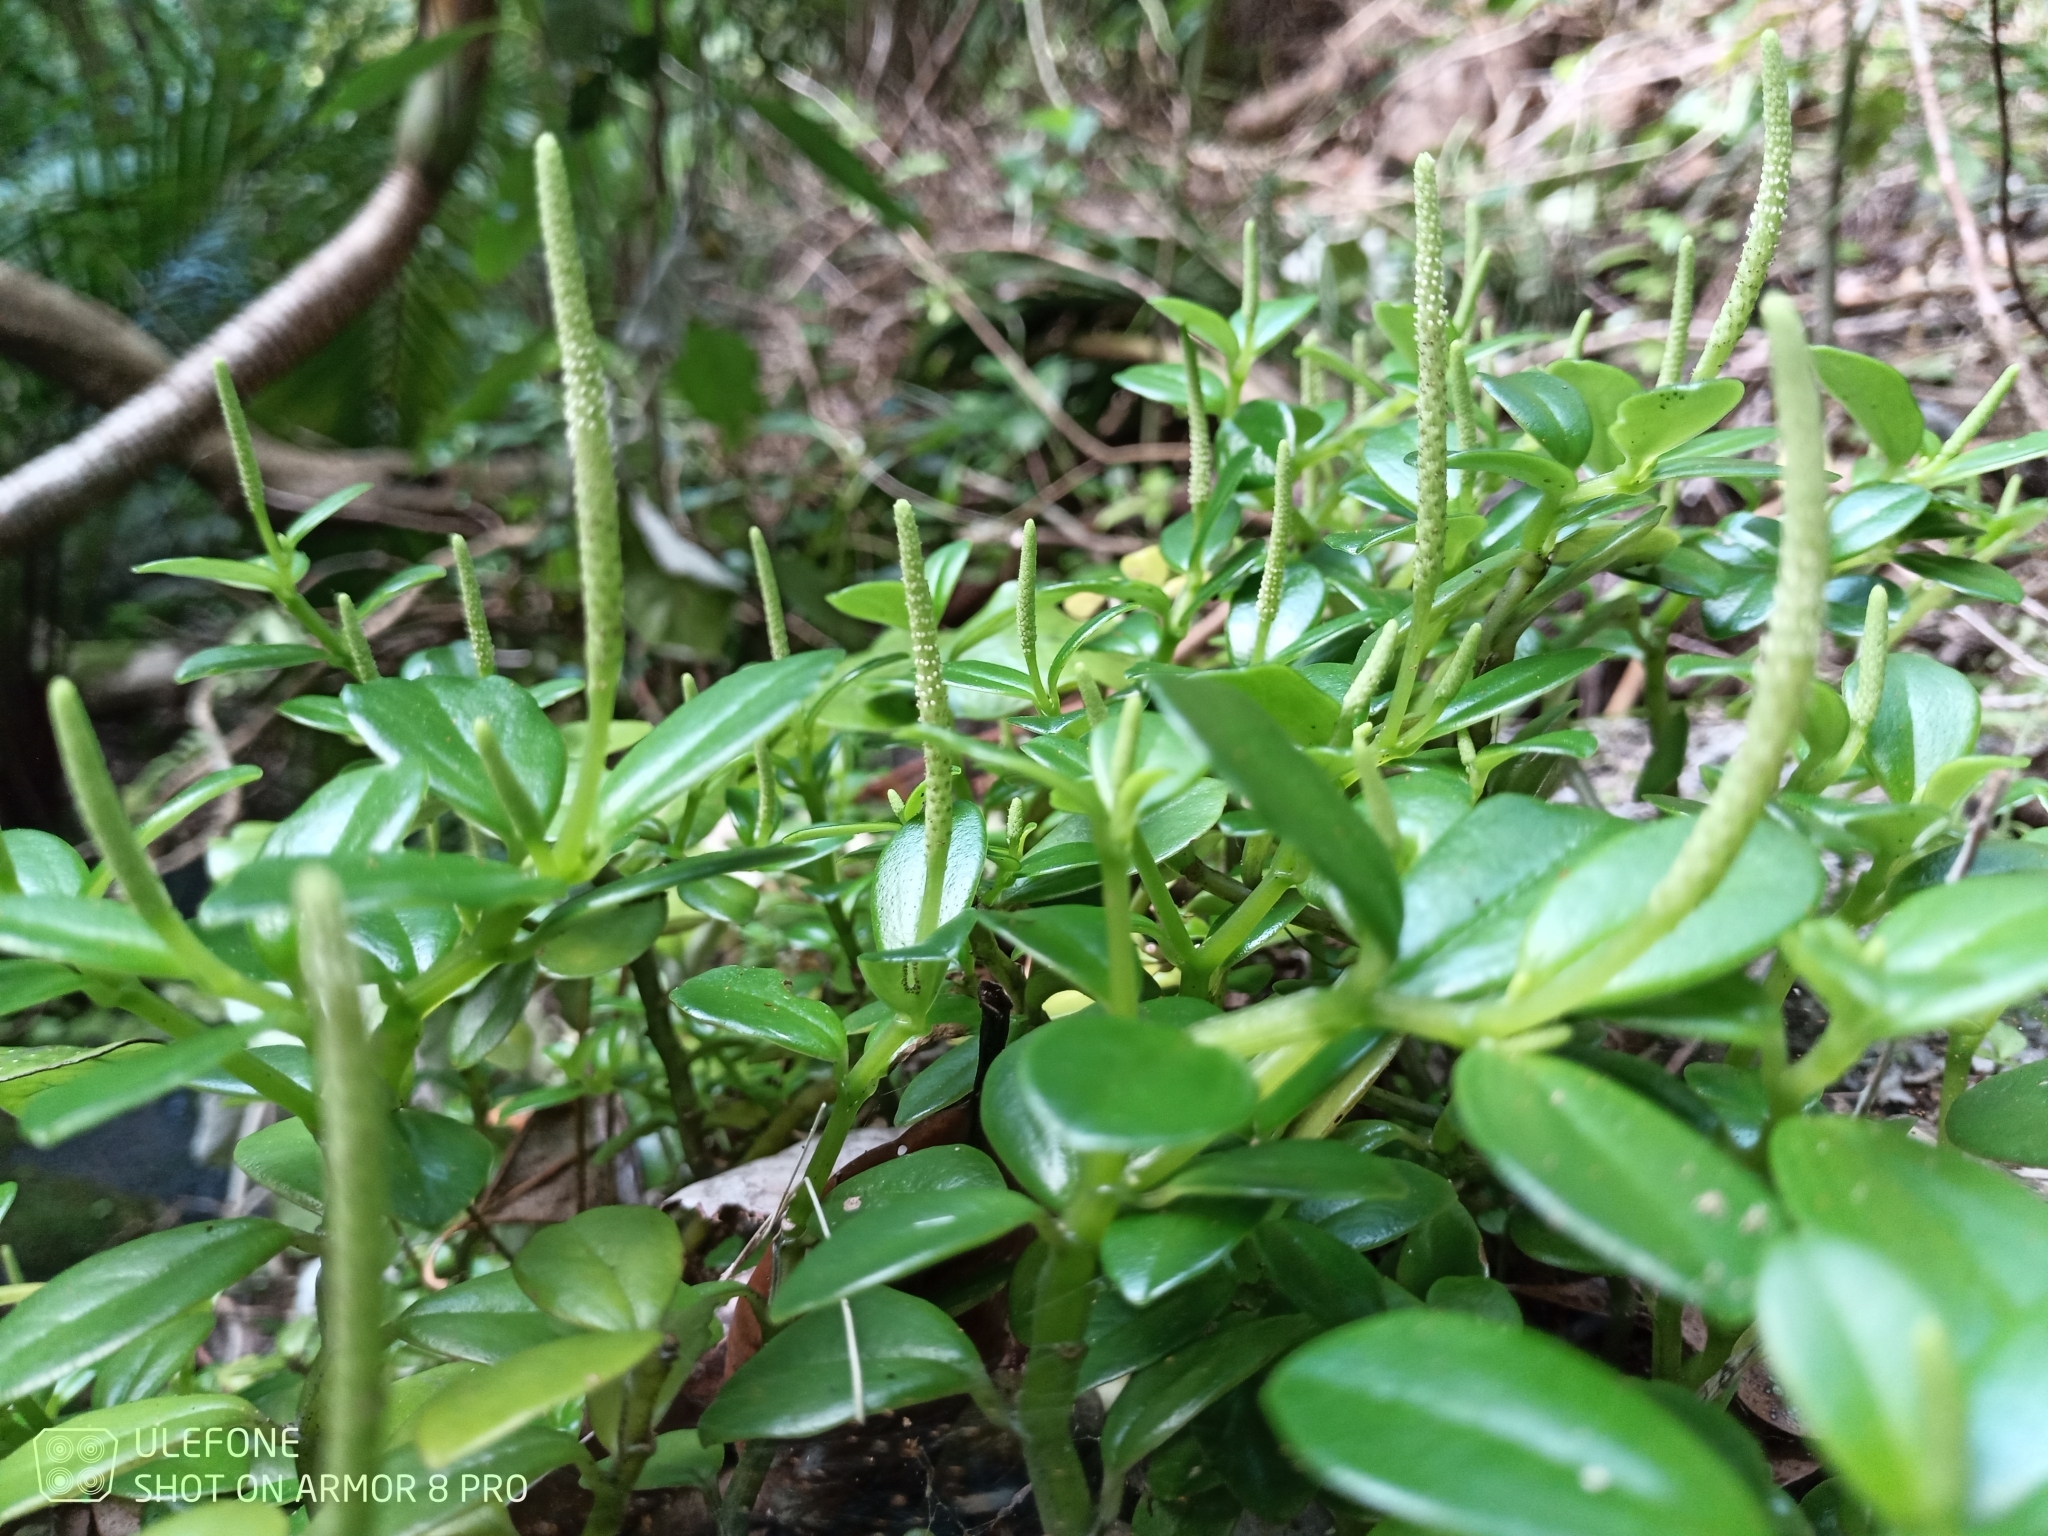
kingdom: Plantae
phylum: Tracheophyta
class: Magnoliopsida
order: Piperales
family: Piperaceae
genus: Peperomia
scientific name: Peperomia urvilleana
